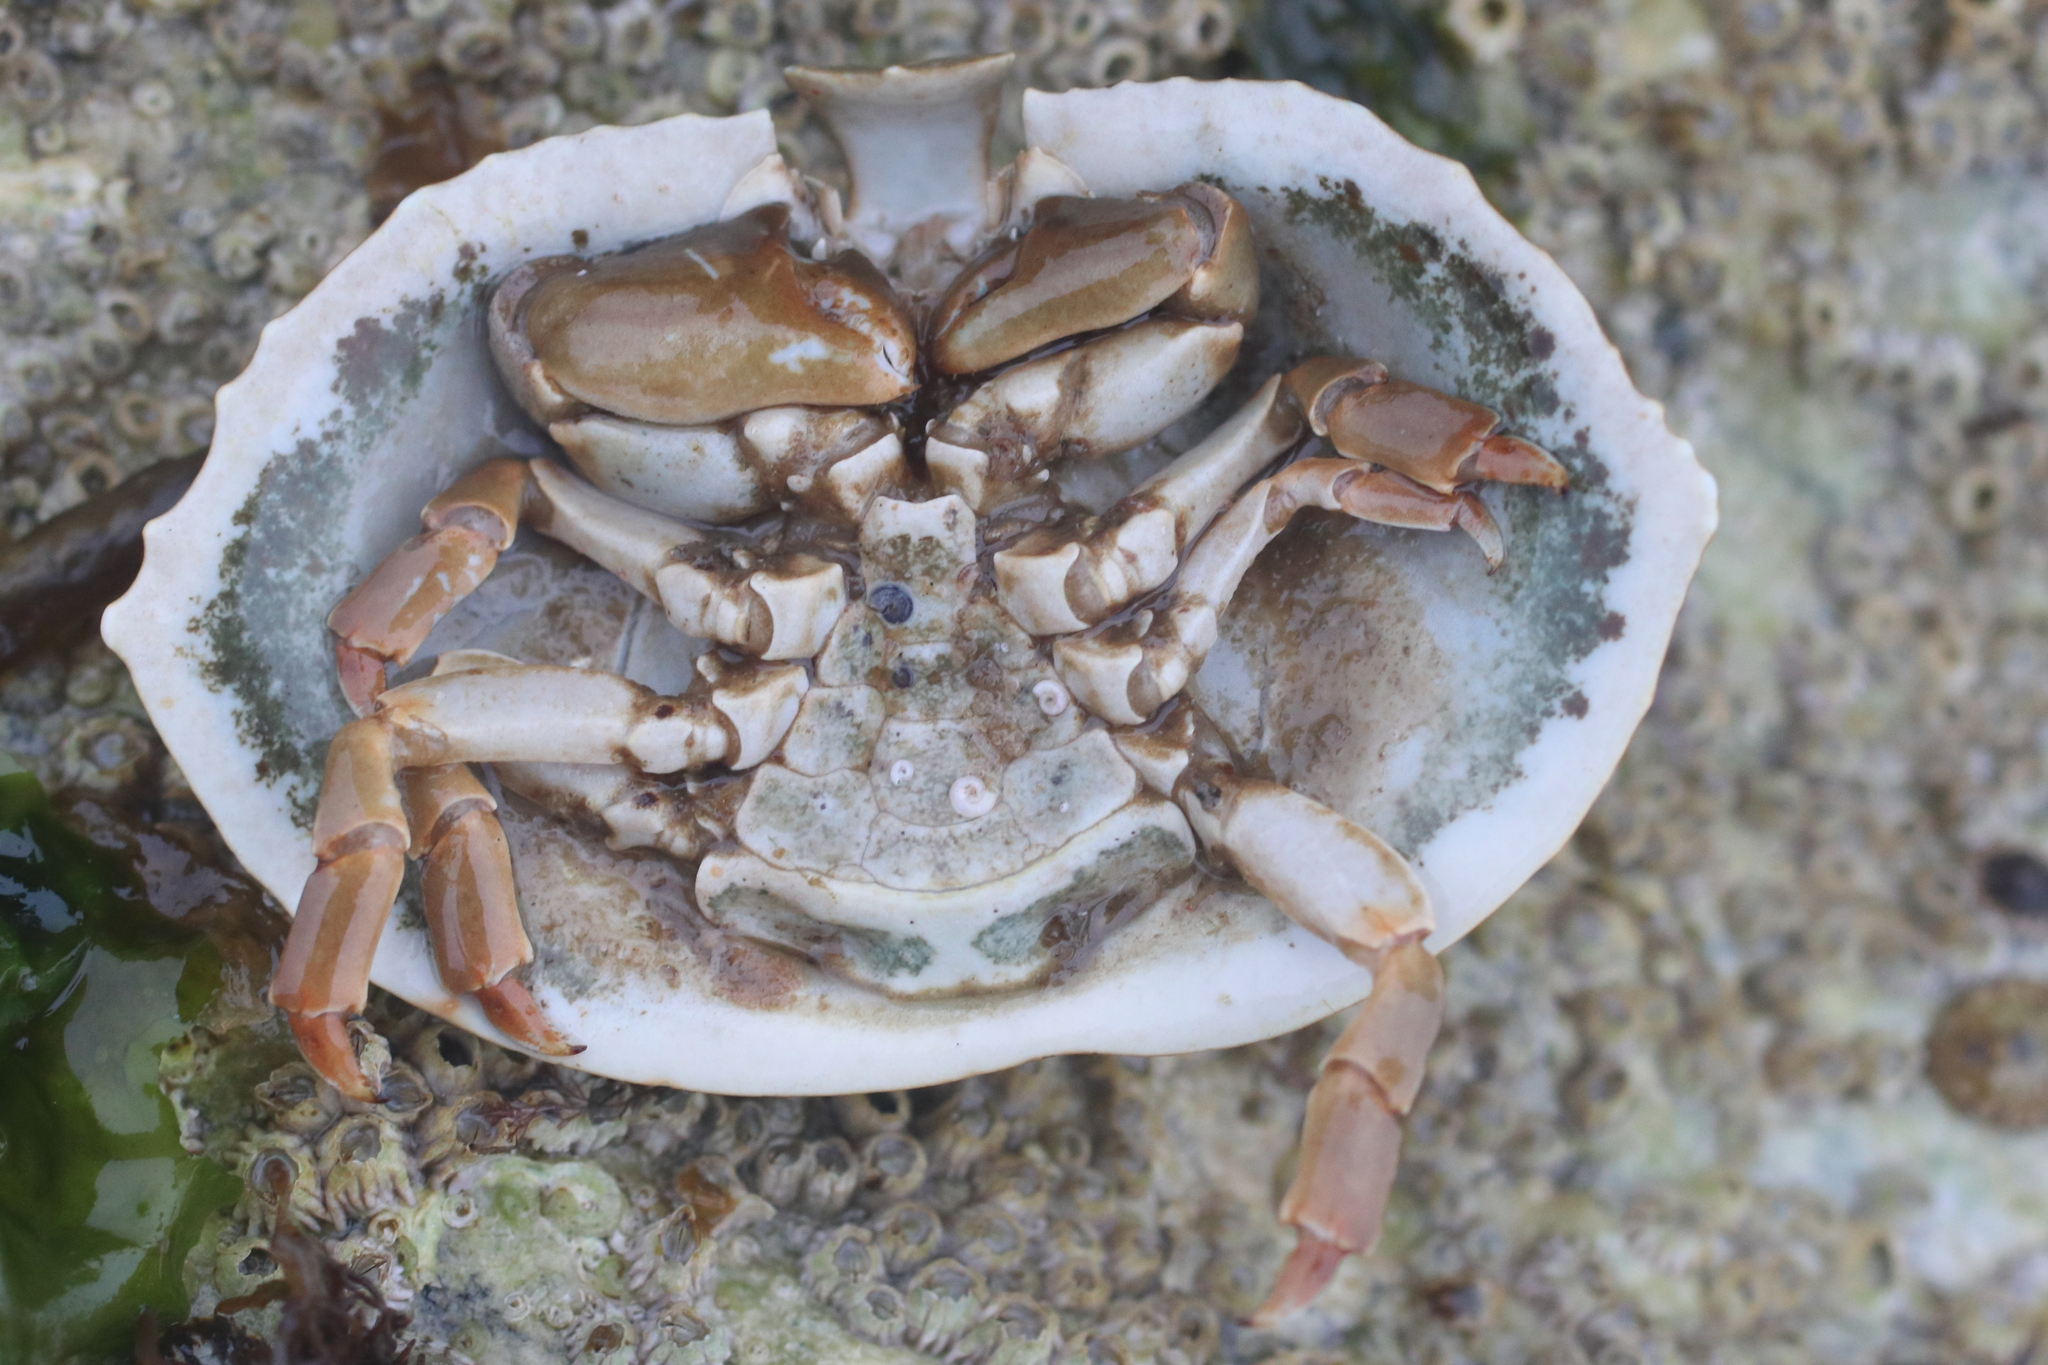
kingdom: Animalia
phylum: Arthropoda
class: Malacostraca
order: Decapoda
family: Lithodidae
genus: Cryptolithodes
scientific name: Cryptolithodes sitchensis
